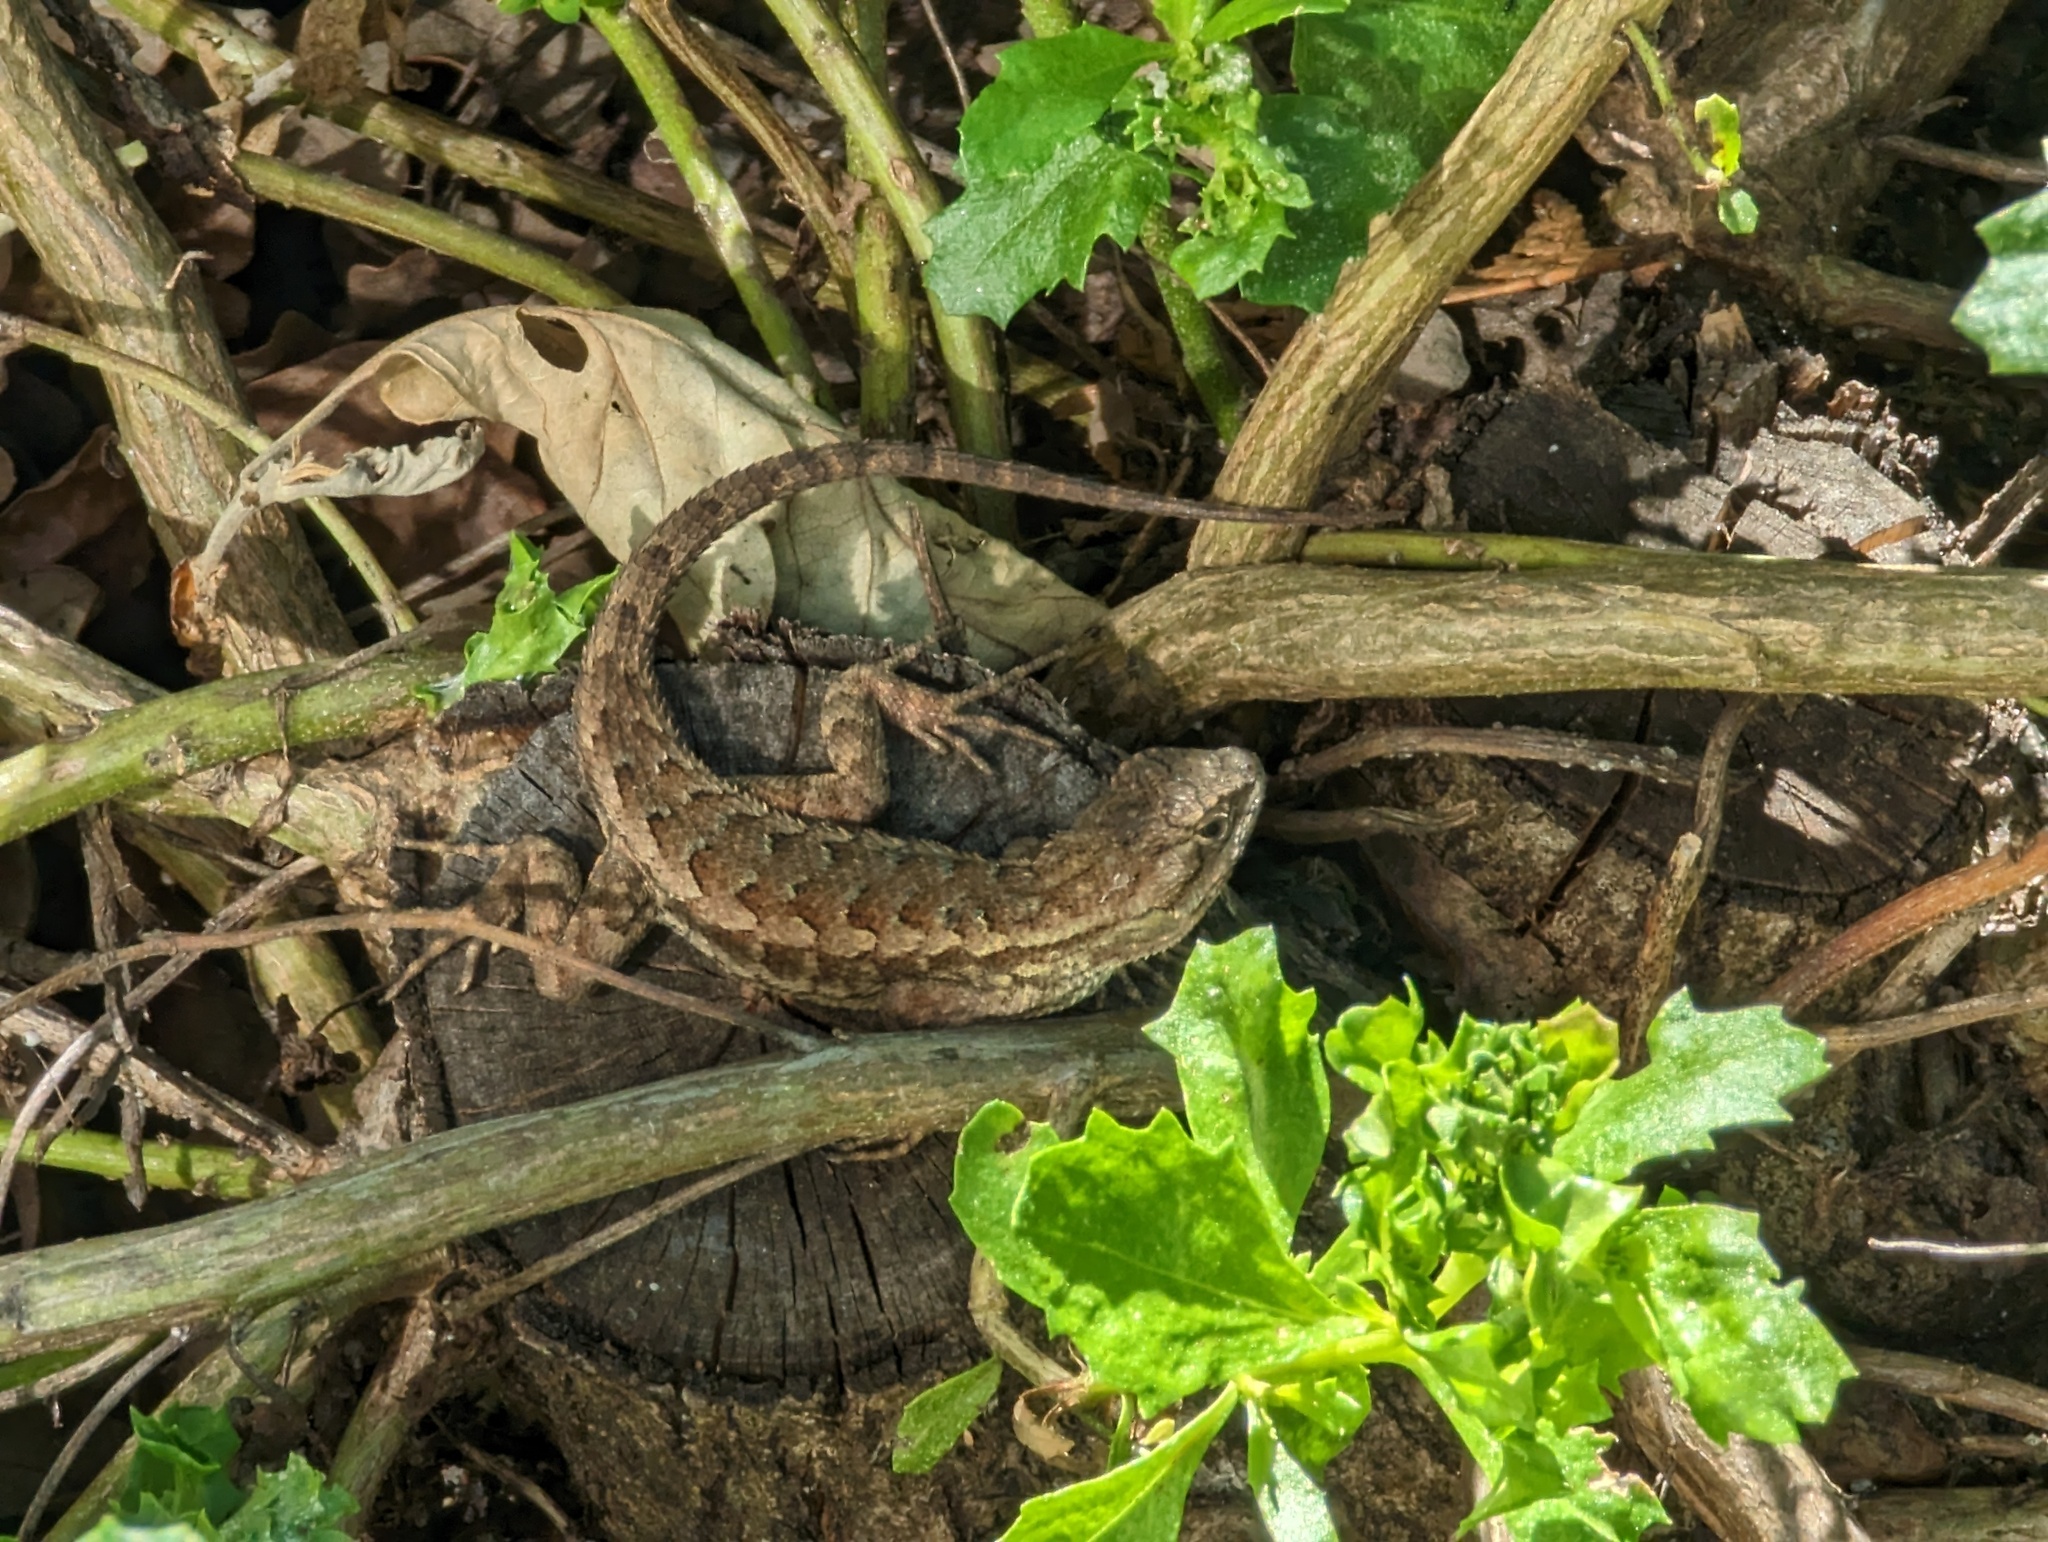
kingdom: Animalia
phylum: Chordata
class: Squamata
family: Phrynosomatidae
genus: Sceloporus
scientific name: Sceloporus occidentalis
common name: Western fence lizard
